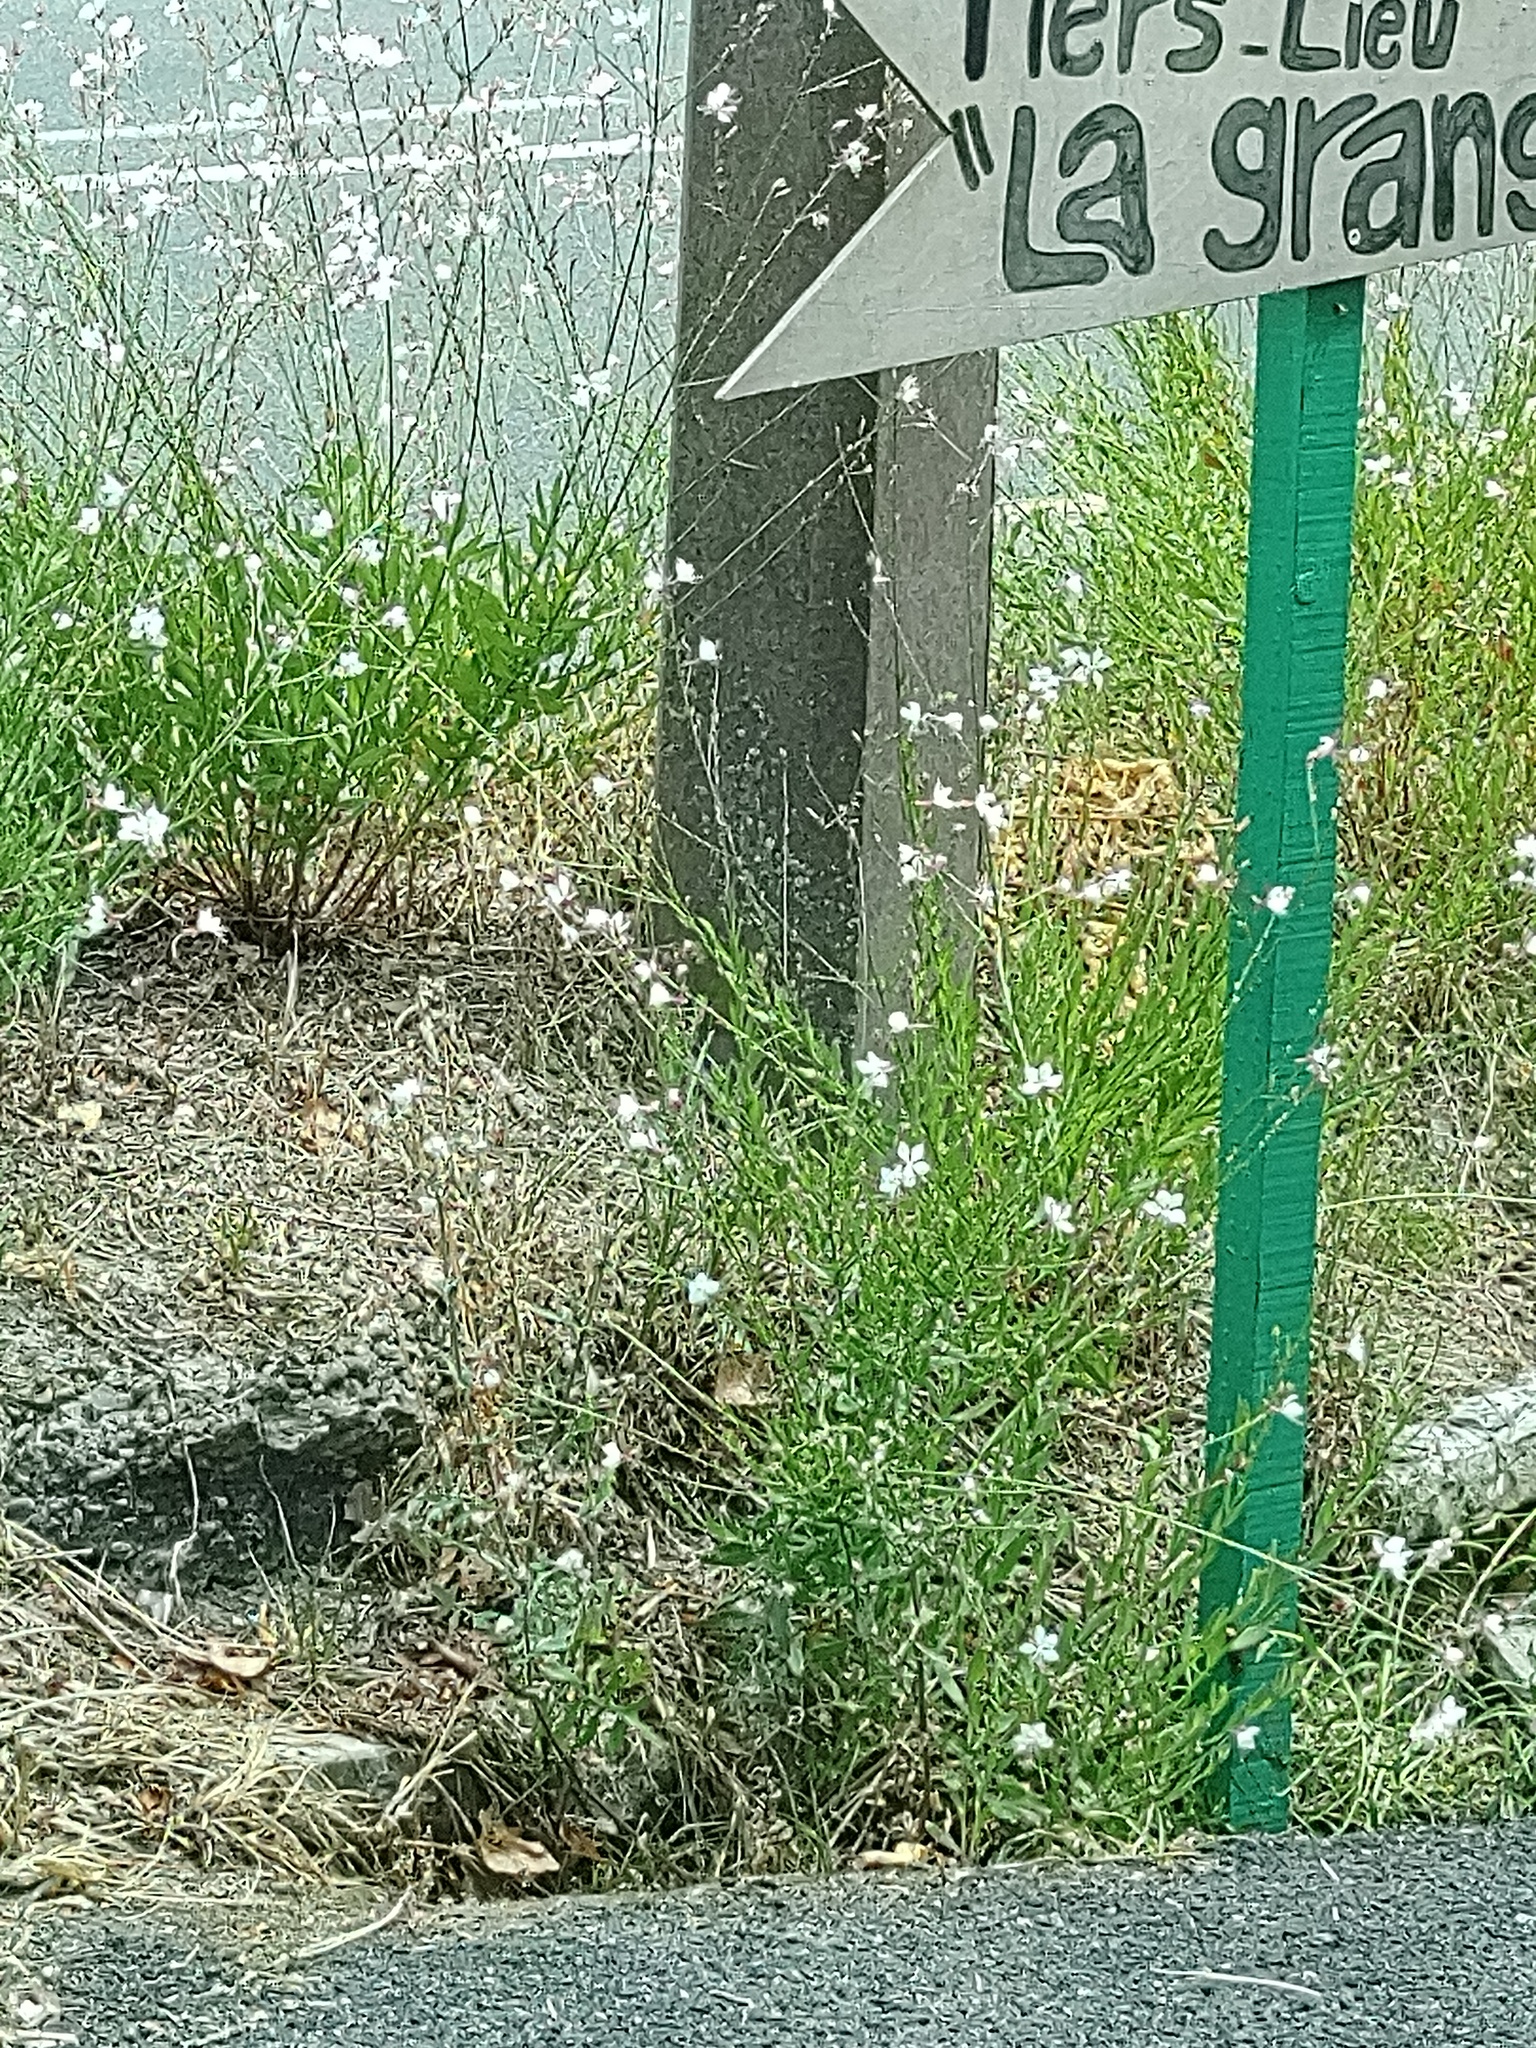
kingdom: Plantae
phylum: Tracheophyta
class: Magnoliopsida
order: Myrtales
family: Onagraceae
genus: Oenothera
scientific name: Oenothera lindheimeri
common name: Lindheimer's beeblossom
